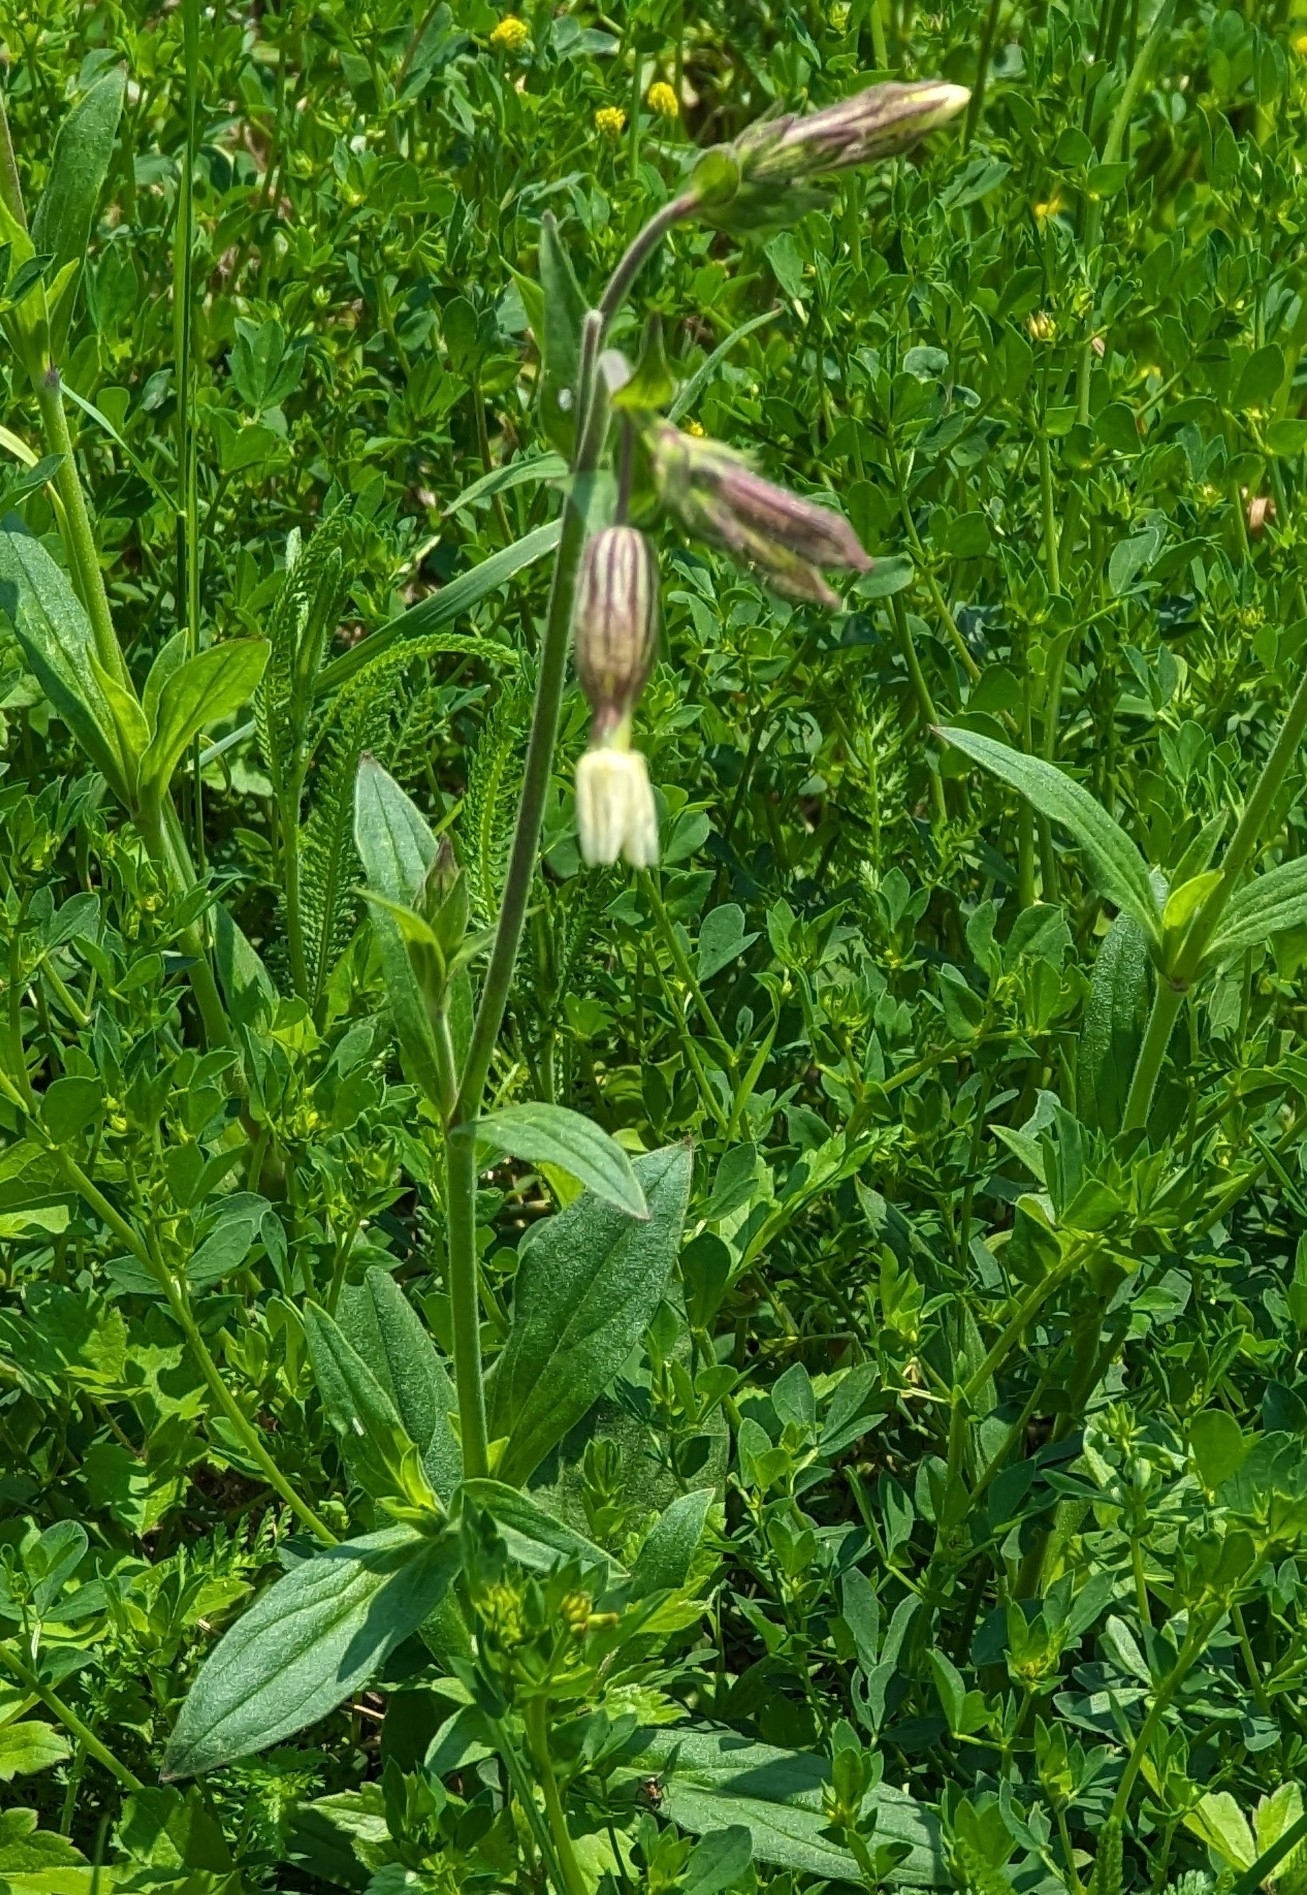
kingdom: Plantae
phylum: Tracheophyta
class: Magnoliopsida
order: Caryophyllales
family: Caryophyllaceae
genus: Silene
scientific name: Silene latifolia
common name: White campion
